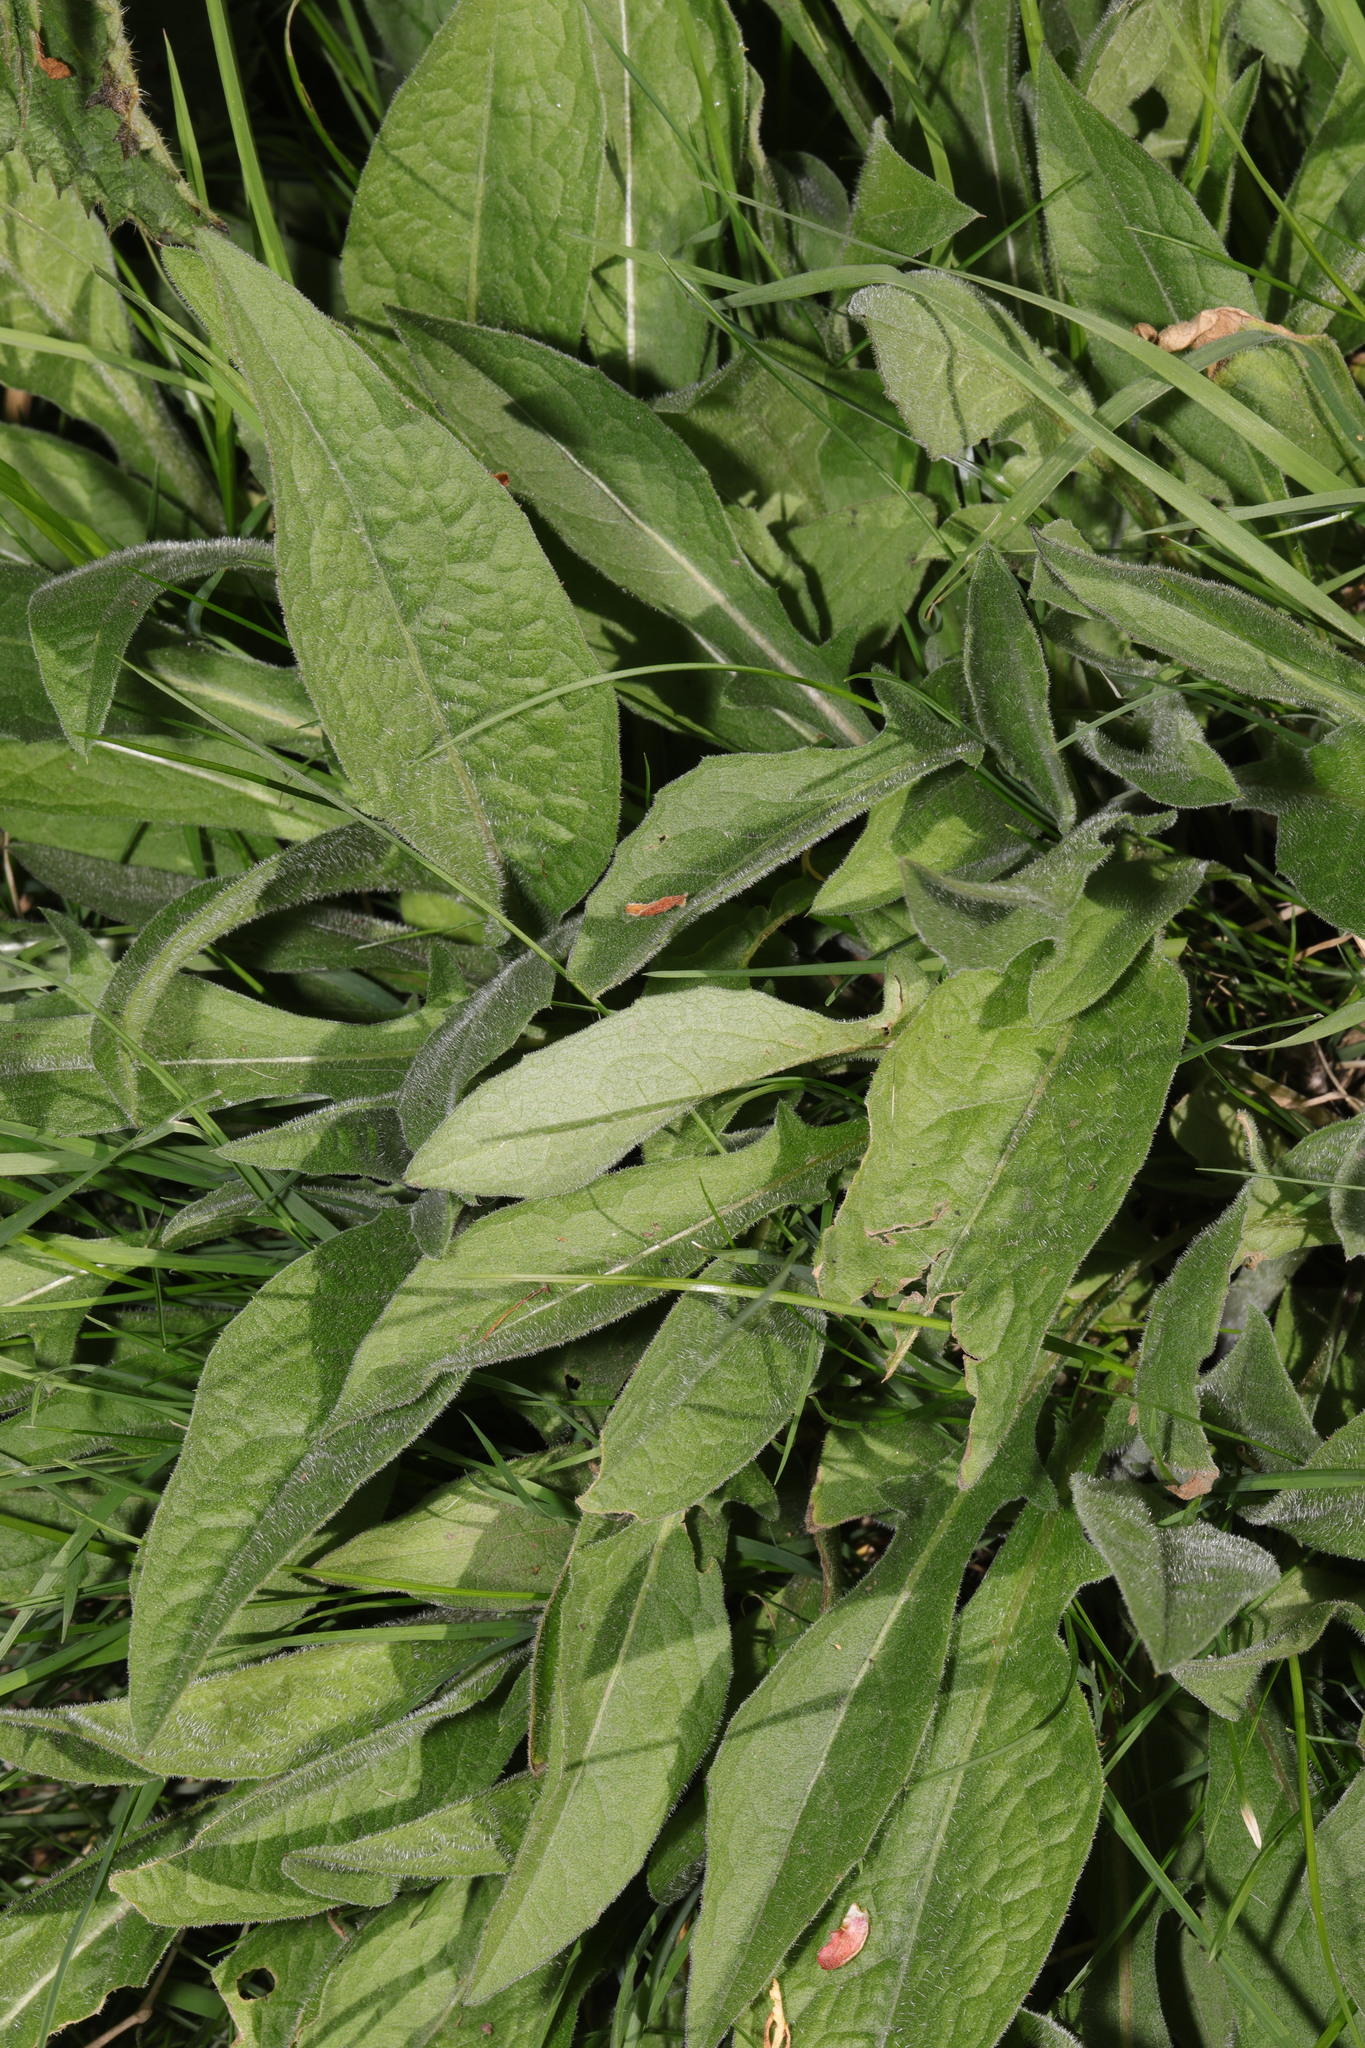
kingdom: Plantae
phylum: Tracheophyta
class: Magnoliopsida
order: Asterales
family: Asteraceae
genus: Centaurea
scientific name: Centaurea nigra
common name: Lesser knapweed
